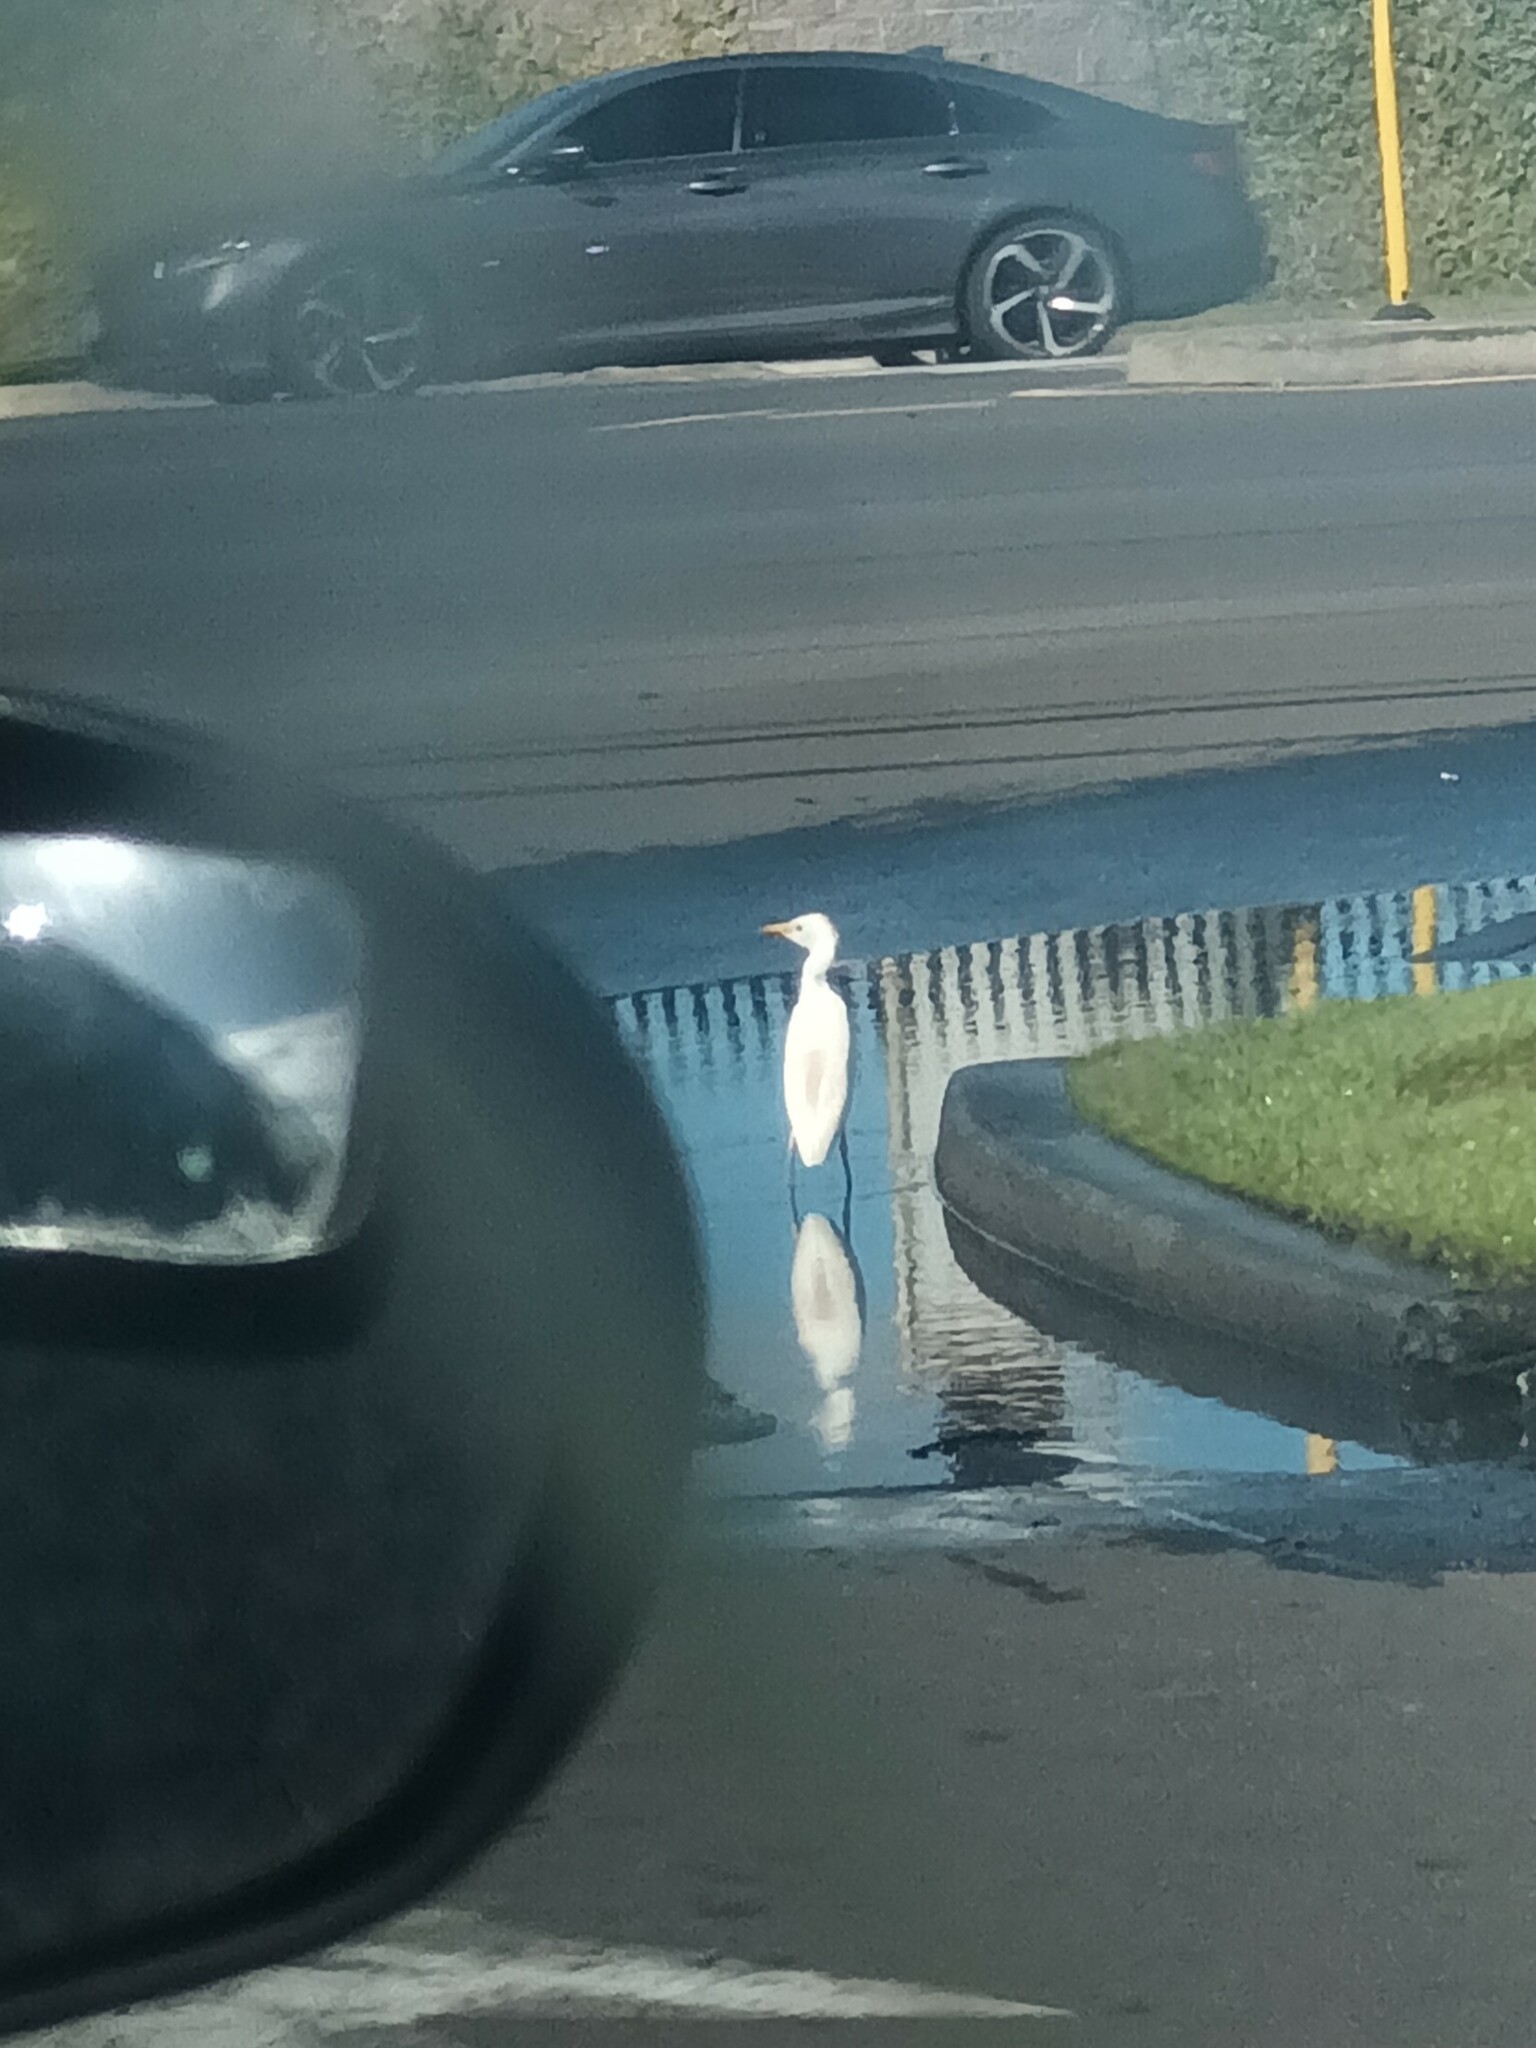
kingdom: Animalia
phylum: Chordata
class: Aves
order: Pelecaniformes
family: Ardeidae
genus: Bubulcus
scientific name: Bubulcus ibis
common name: Cattle egret
